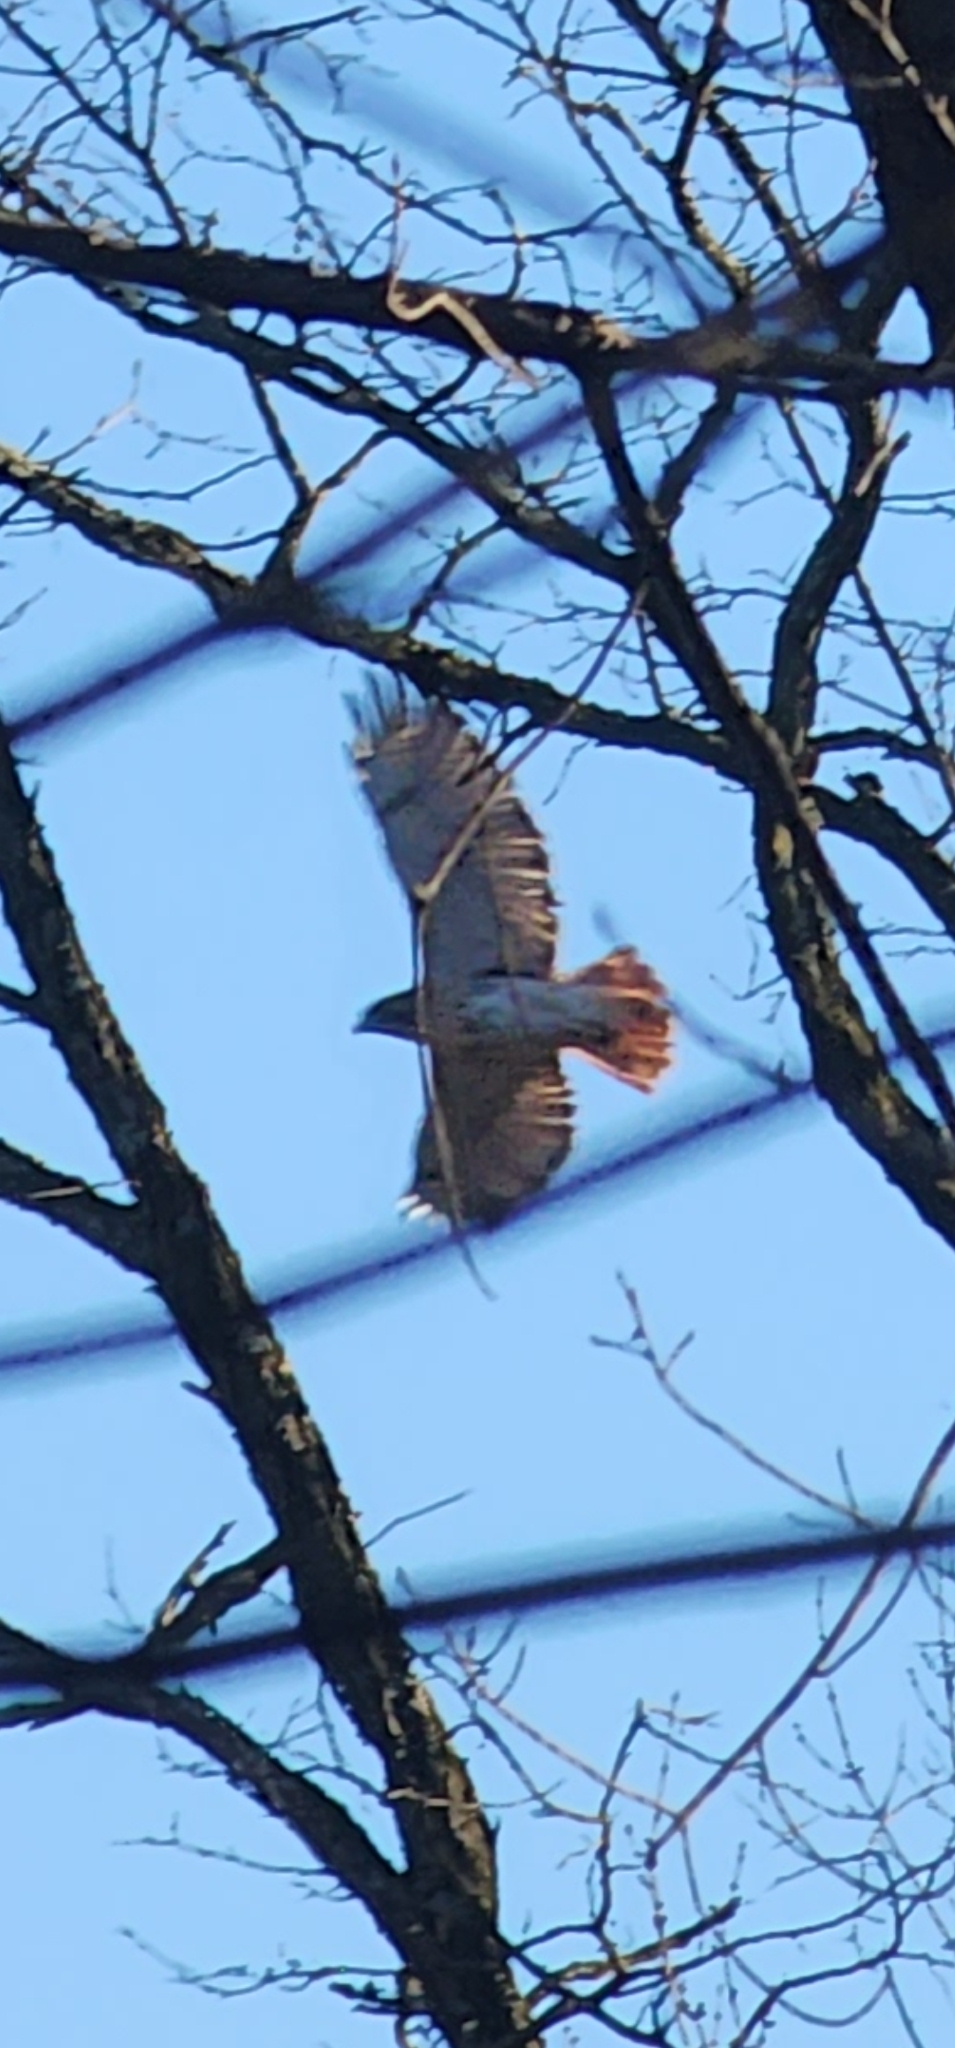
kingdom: Animalia
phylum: Chordata
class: Aves
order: Accipitriformes
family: Accipitridae
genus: Buteo
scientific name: Buteo jamaicensis
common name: Red-tailed hawk
